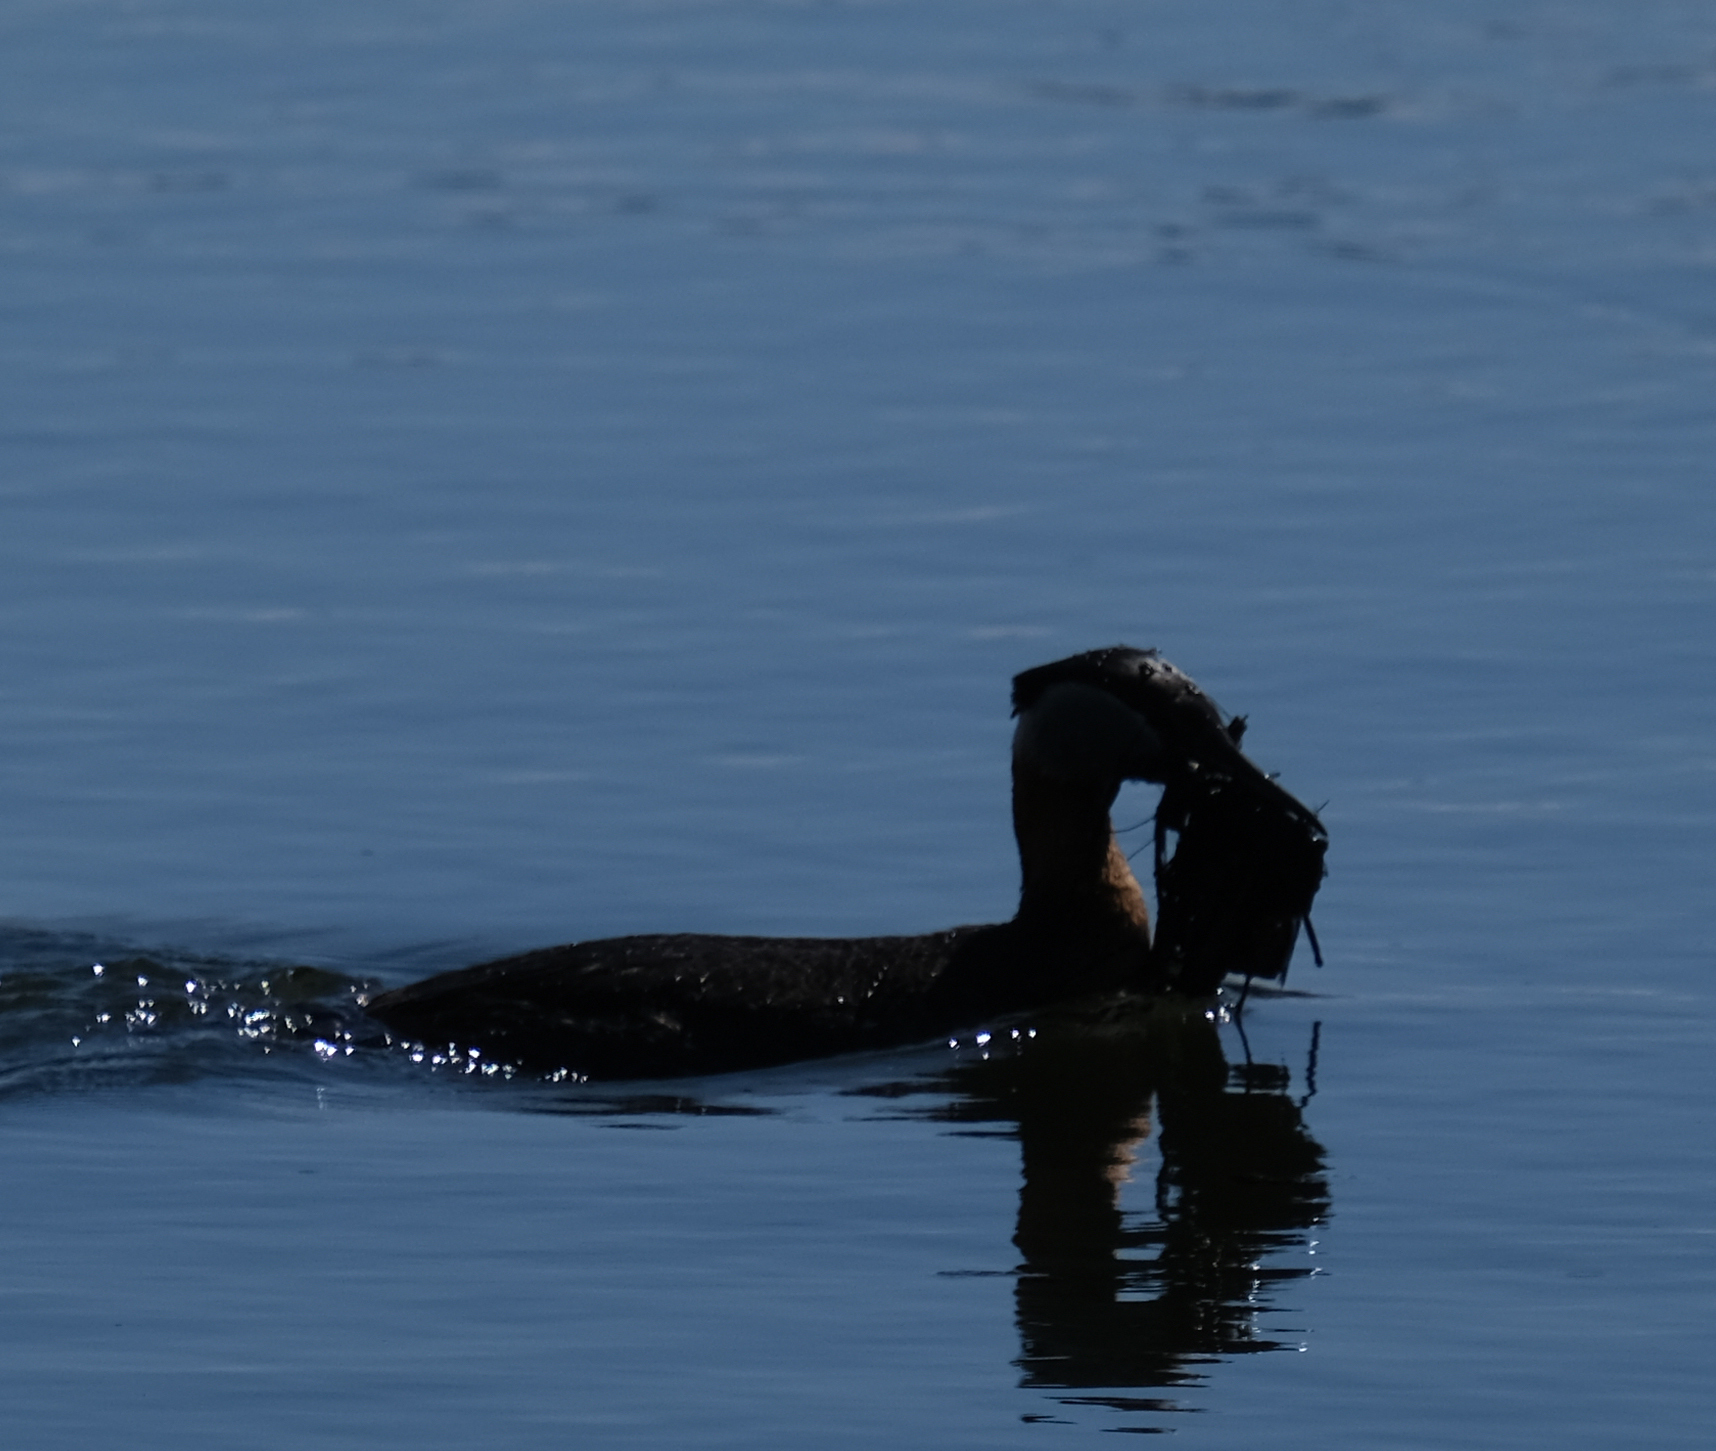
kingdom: Animalia
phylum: Chordata
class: Aves
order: Podicipediformes
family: Podicipedidae
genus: Podiceps
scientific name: Podiceps grisegena
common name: Red-necked grebe
